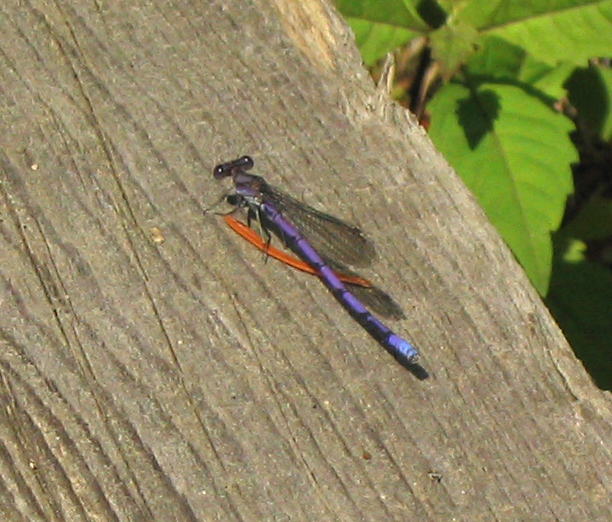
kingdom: Animalia
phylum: Arthropoda
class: Insecta
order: Odonata
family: Coenagrionidae
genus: Argia
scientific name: Argia fumipennis
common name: Variable dancer
